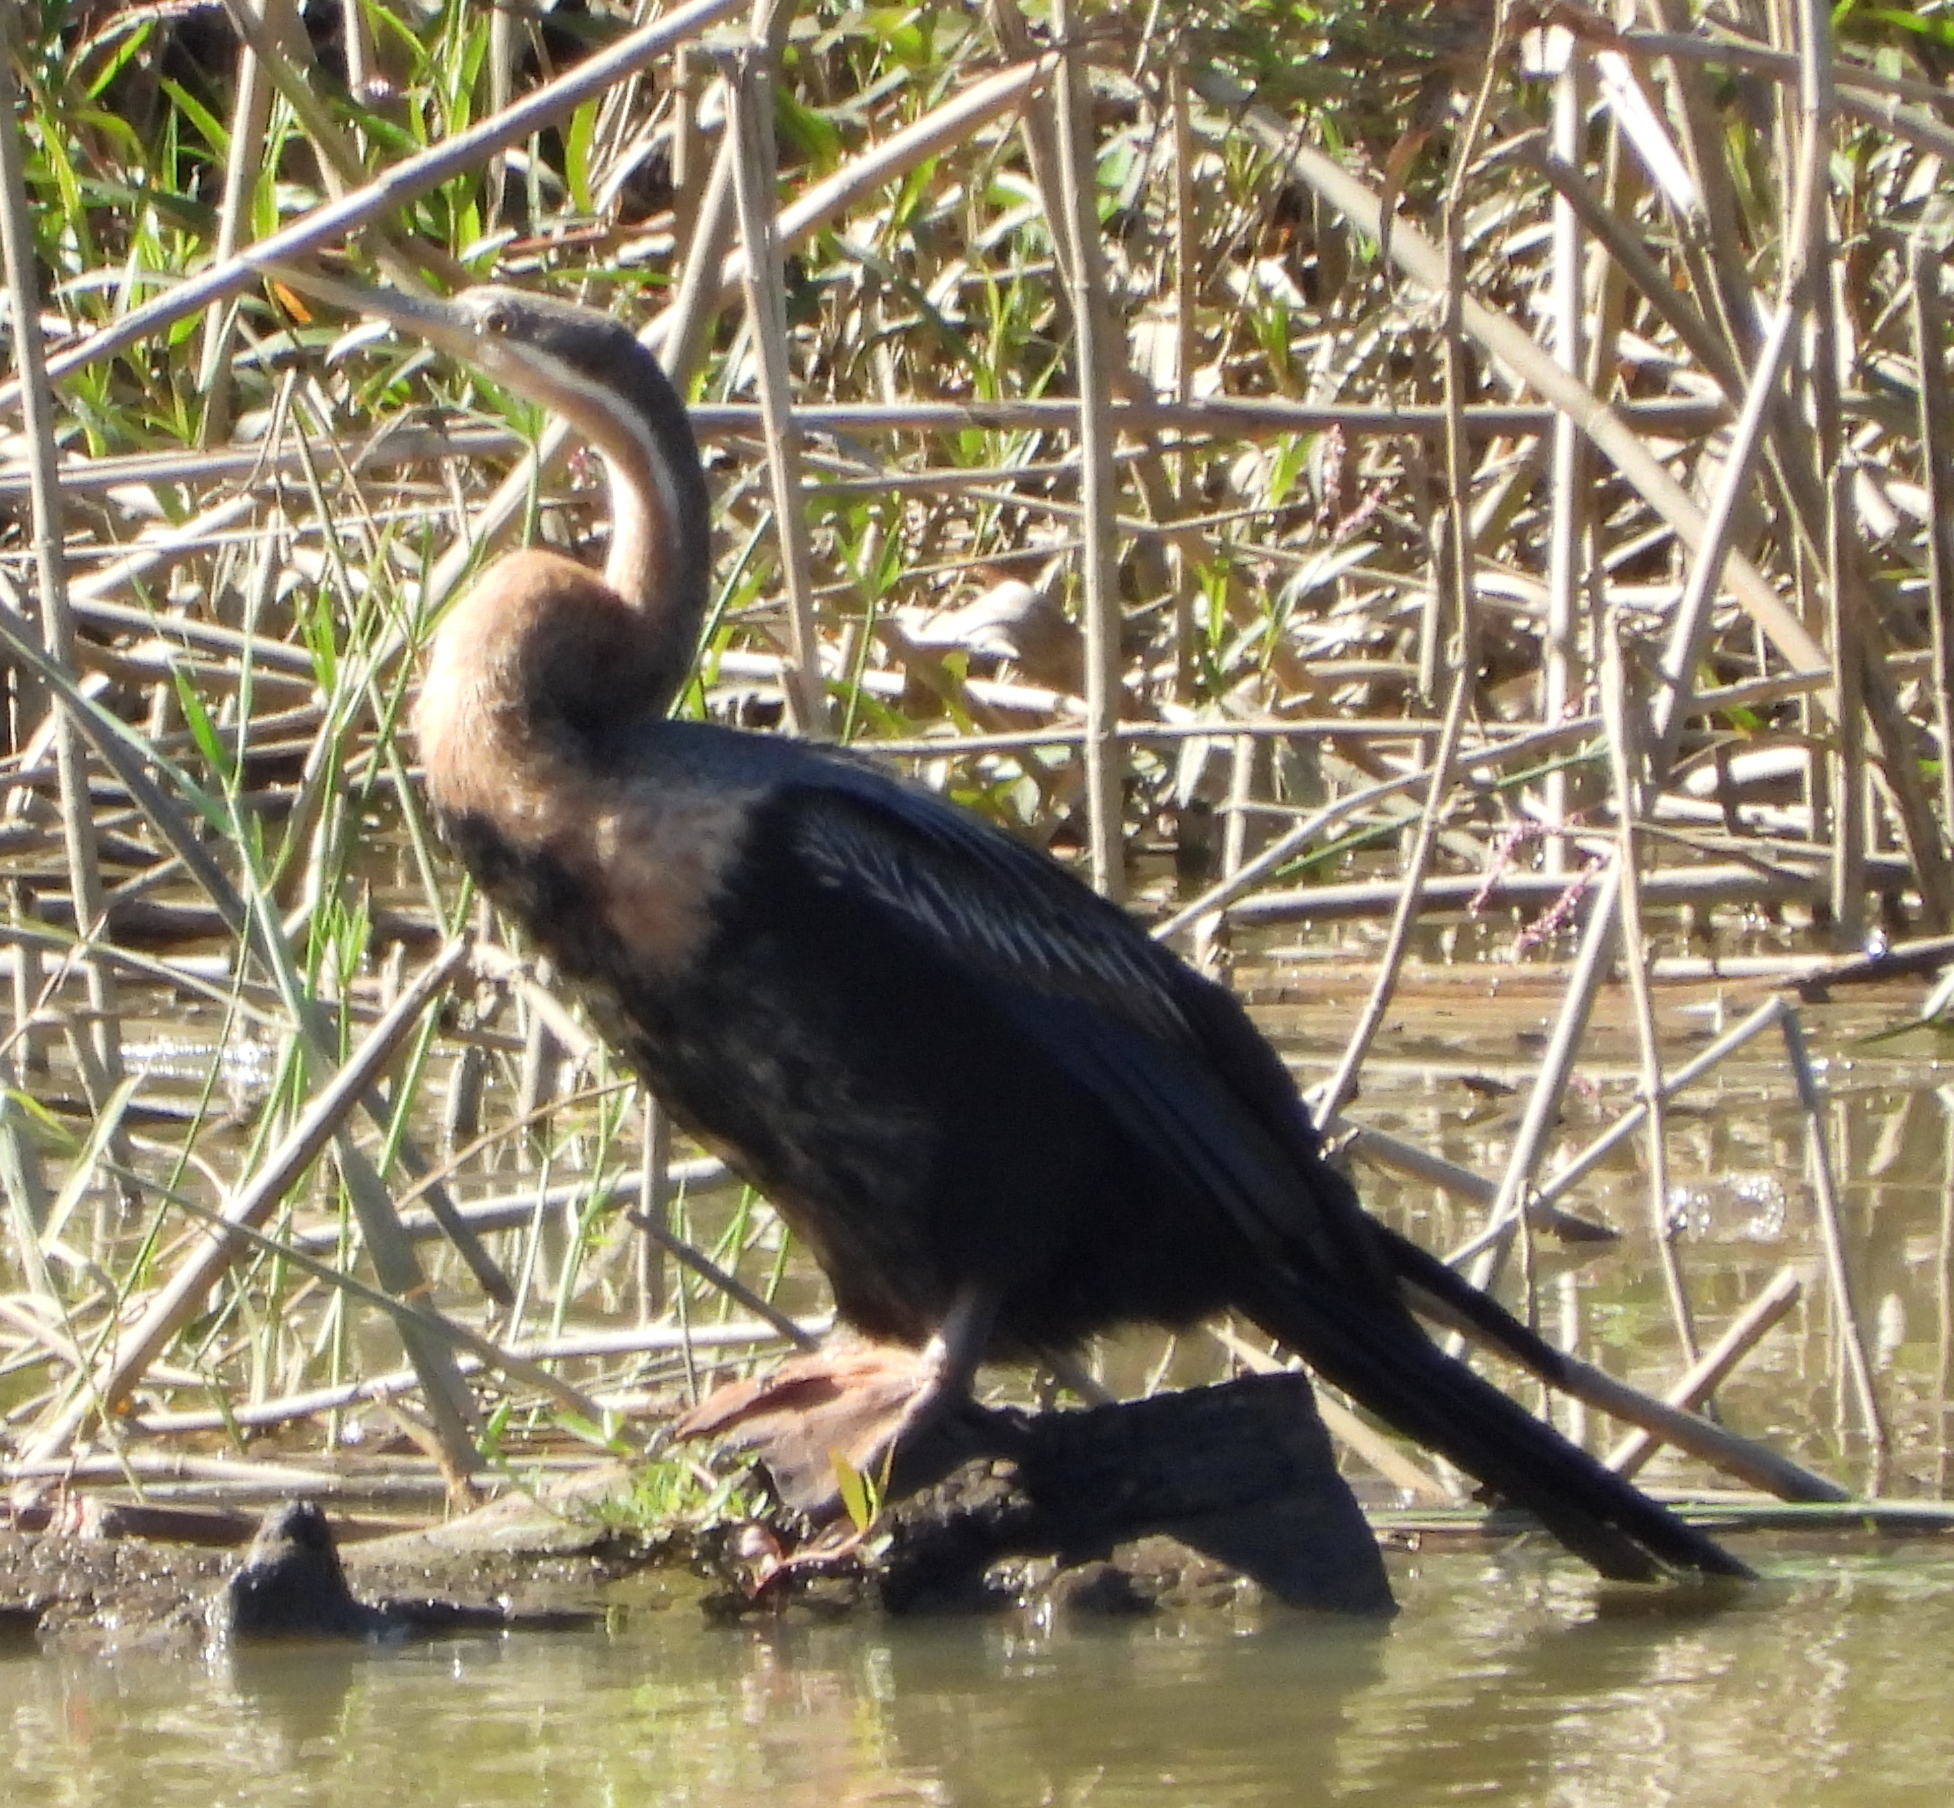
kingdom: Animalia
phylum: Chordata
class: Aves
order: Suliformes
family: Anhingidae
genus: Anhinga
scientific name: Anhinga rufa
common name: African darter
